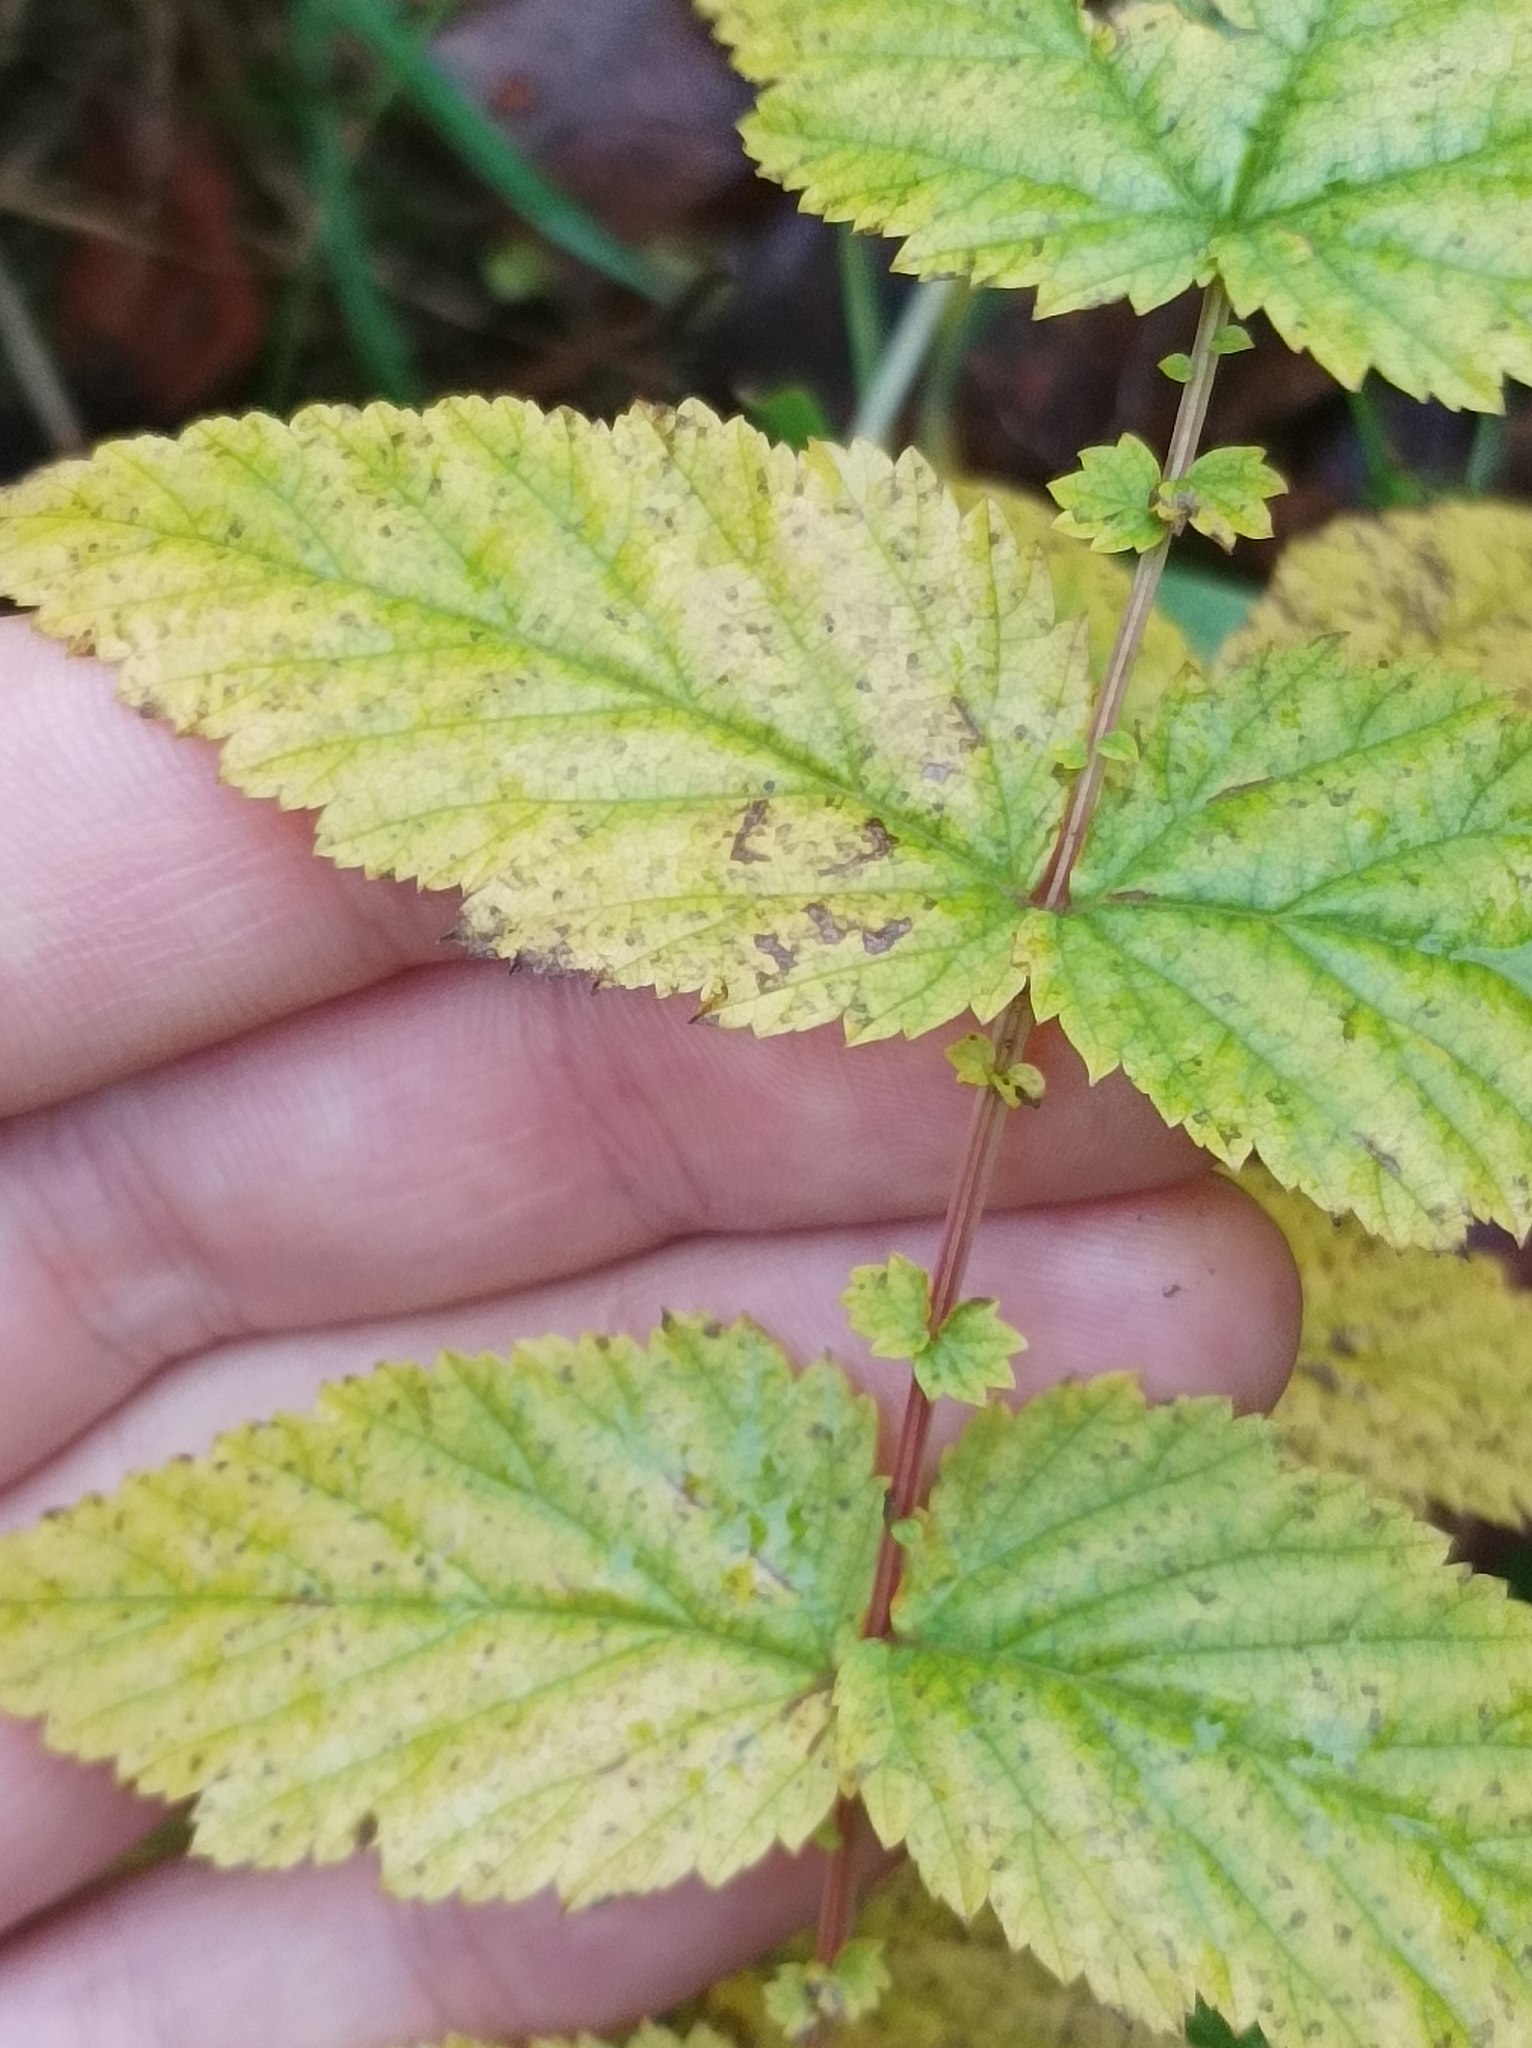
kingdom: Plantae
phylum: Tracheophyta
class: Magnoliopsida
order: Rosales
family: Rosaceae
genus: Filipendula
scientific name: Filipendula ulmaria
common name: Meadowsweet
